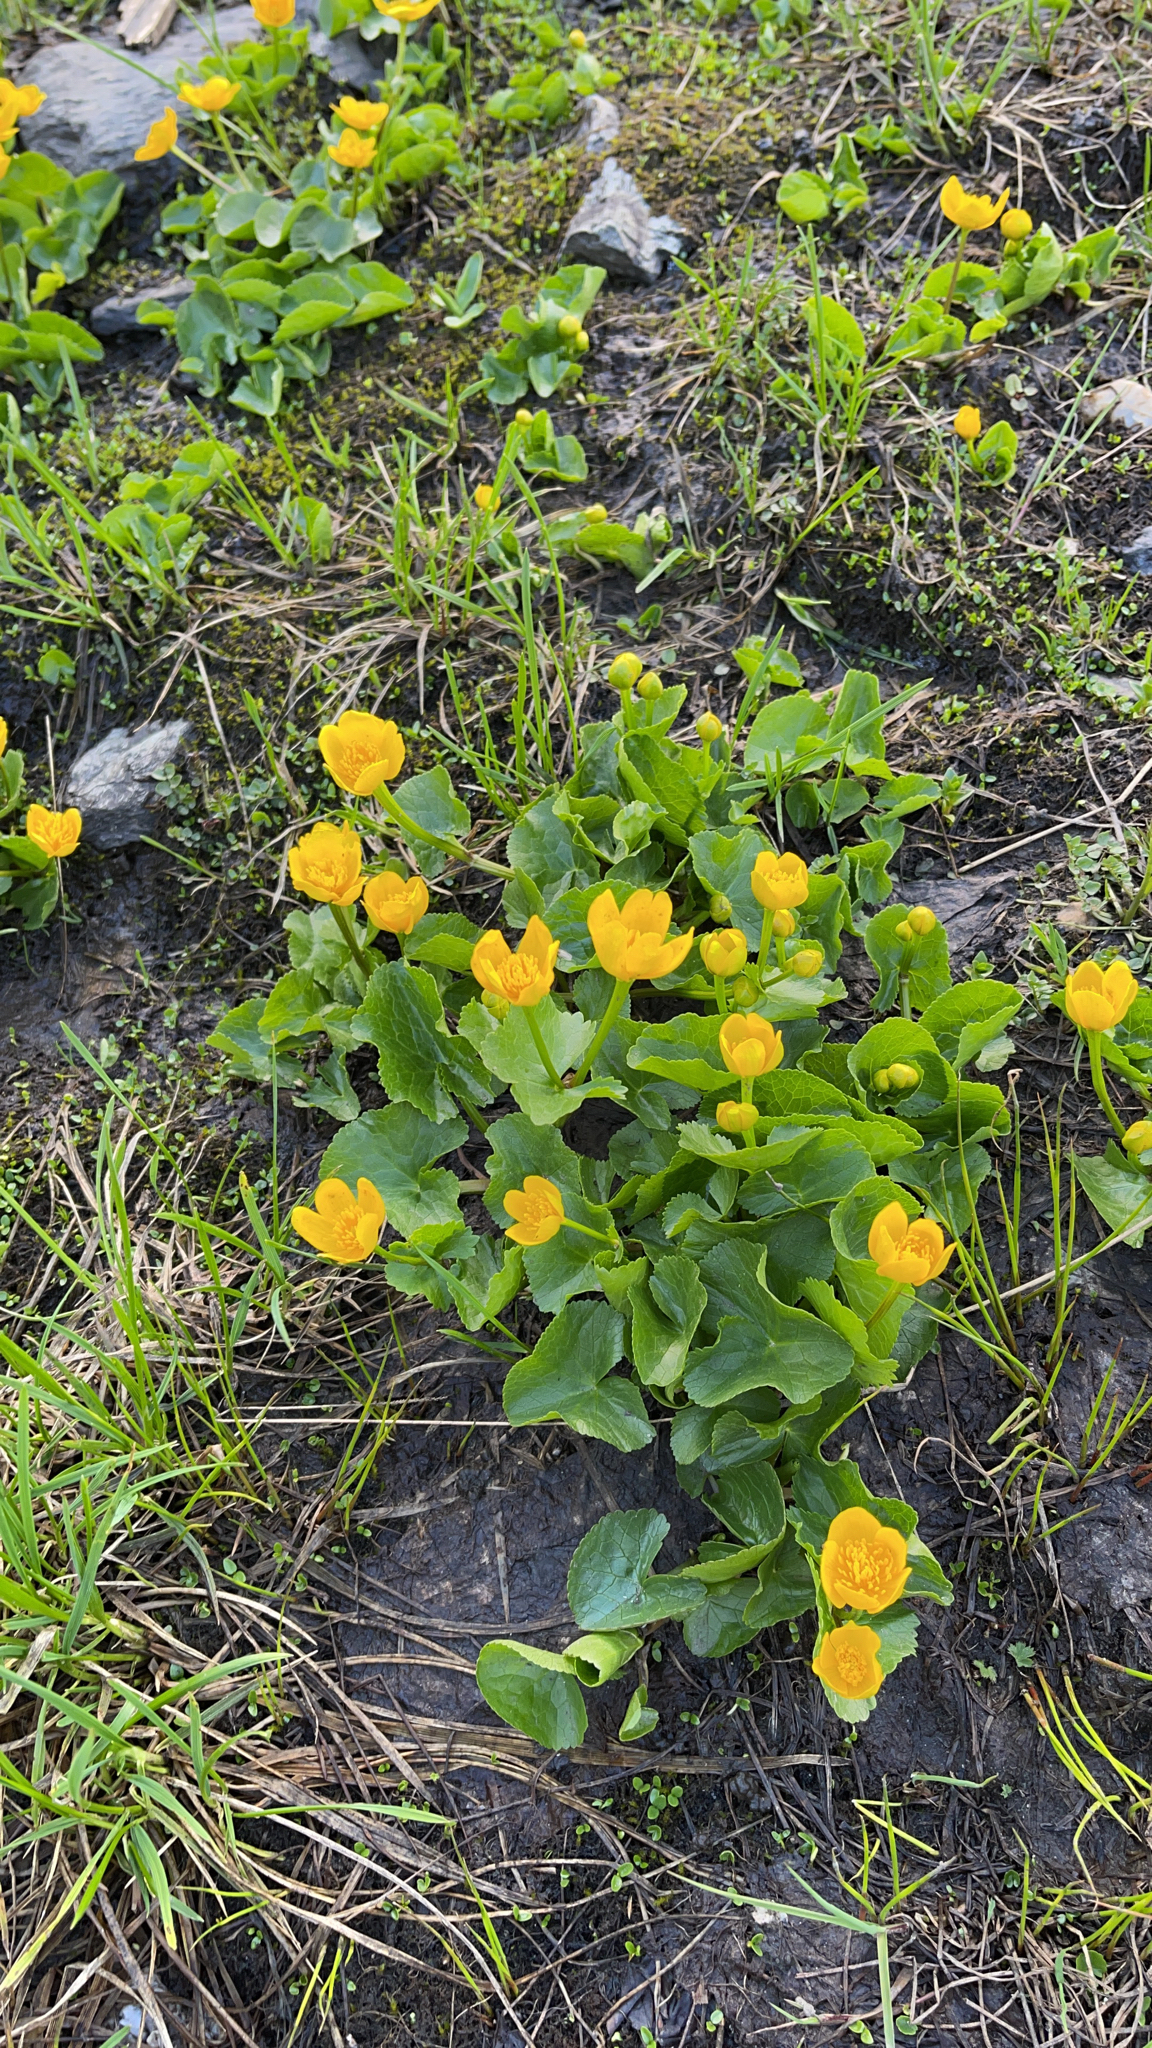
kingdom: Plantae
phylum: Tracheophyta
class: Magnoliopsida
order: Ranunculales
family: Ranunculaceae
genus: Caltha
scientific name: Caltha palustris
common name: Marsh marigold
